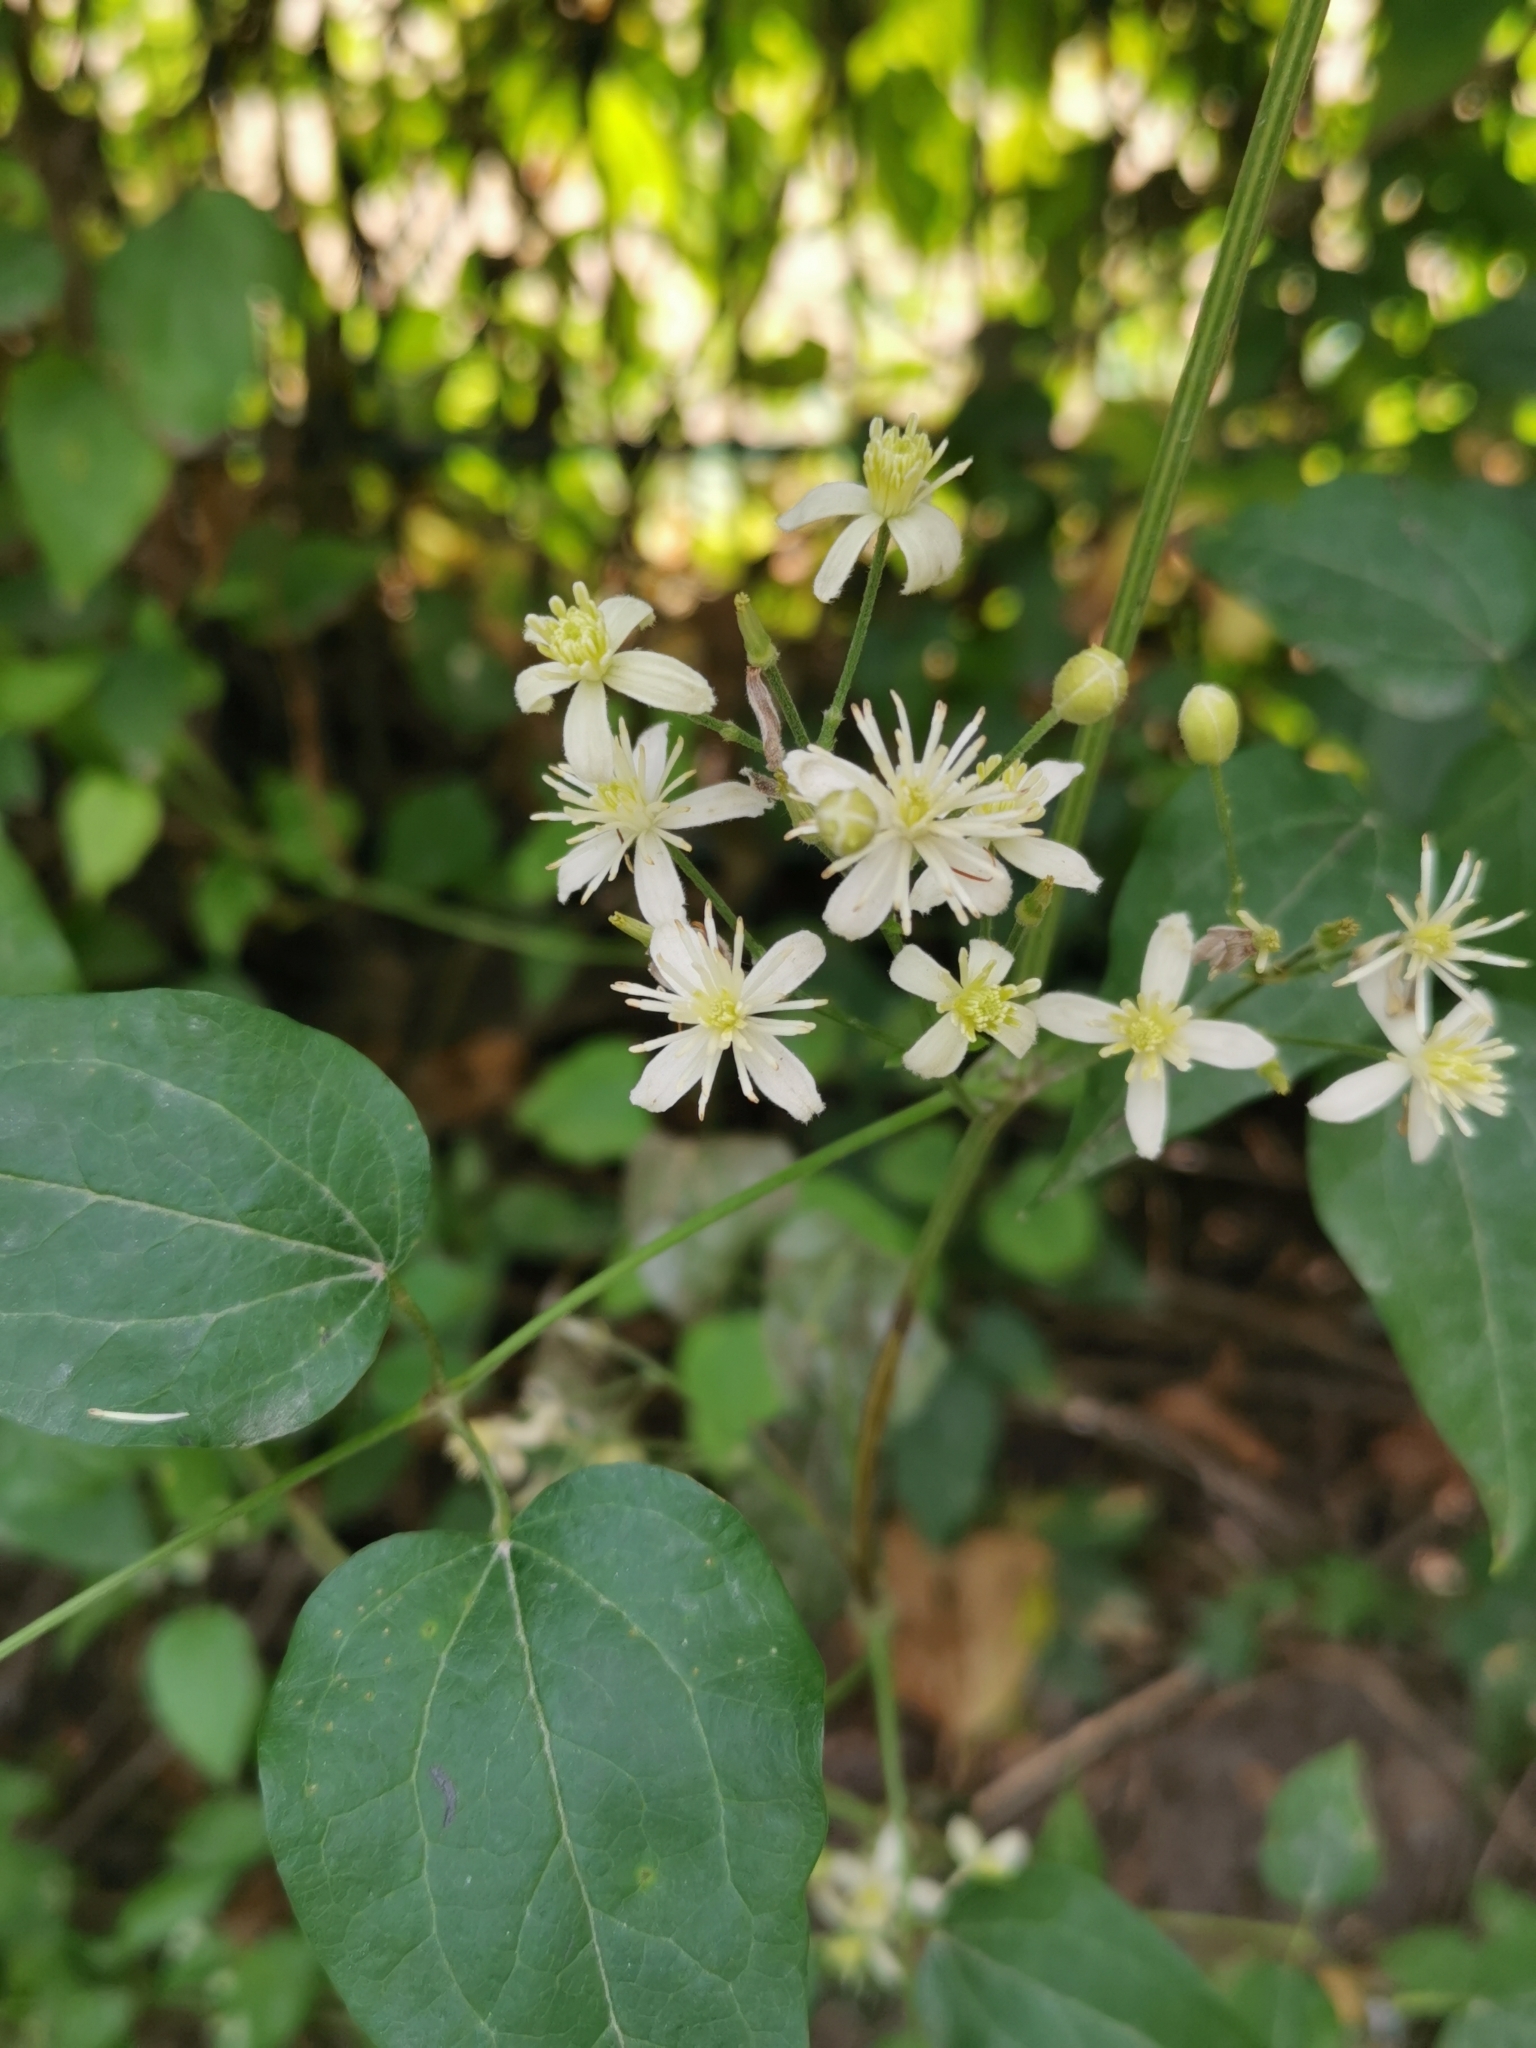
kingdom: Plantae
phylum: Tracheophyta
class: Magnoliopsida
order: Ranunculales
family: Ranunculaceae
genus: Clematis
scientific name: Clematis vitalba
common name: Evergreen clematis
